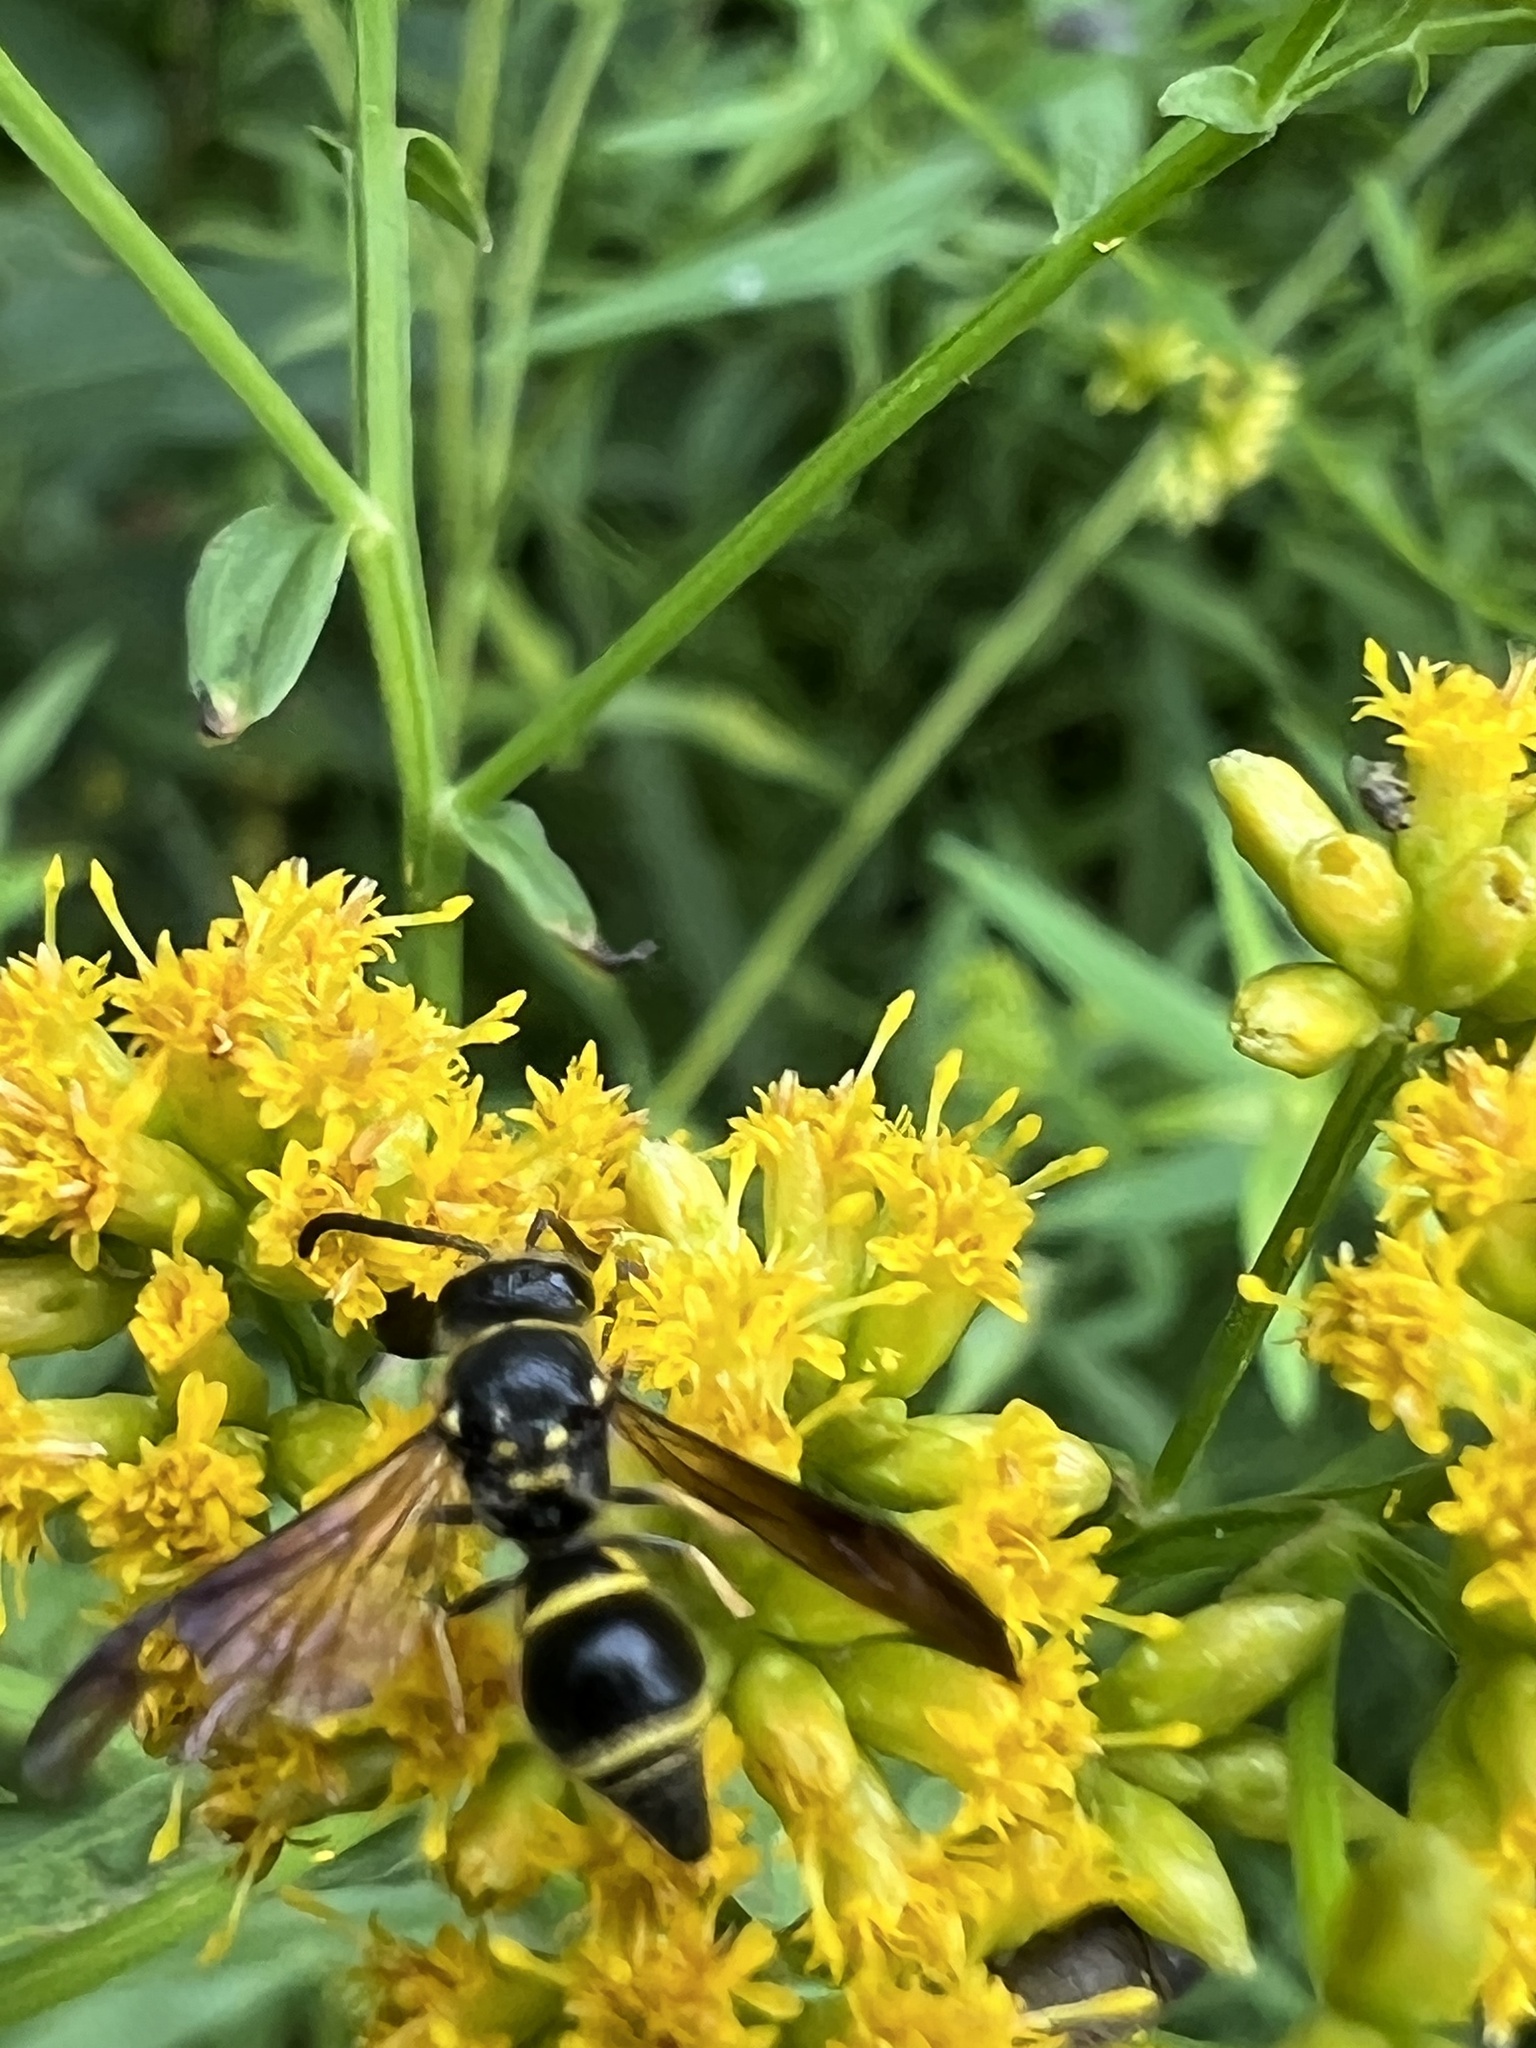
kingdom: Animalia
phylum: Arthropoda
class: Insecta
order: Hymenoptera
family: Vespidae
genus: Ancistrocerus
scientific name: Ancistrocerus campestris
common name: Smiling mason wasp
